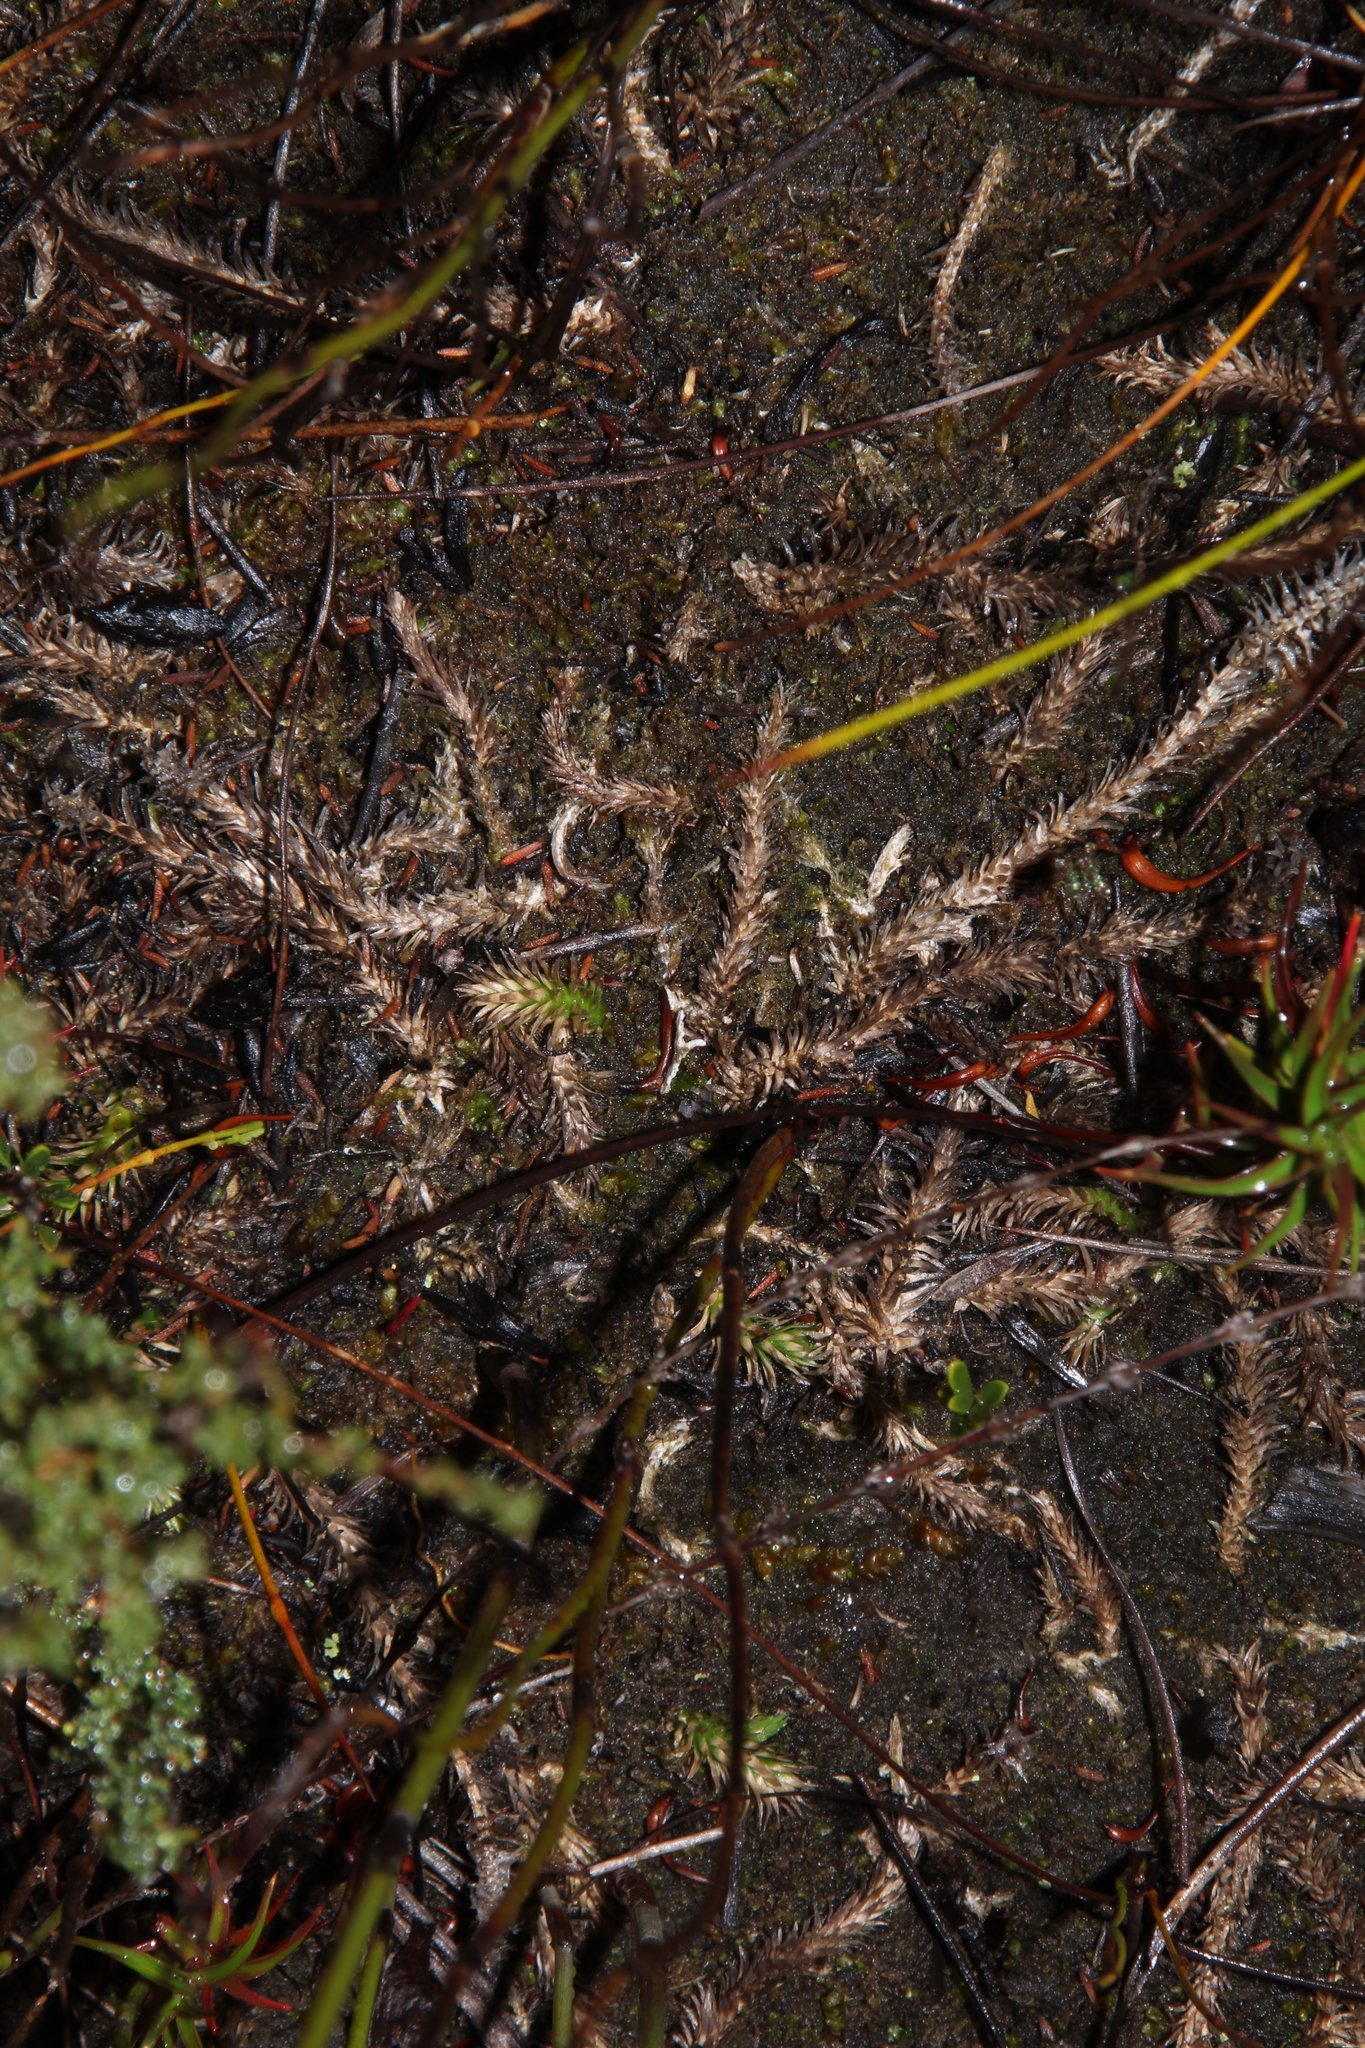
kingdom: Plantae
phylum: Tracheophyta
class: Lycopodiopsida
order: Lycopodiales
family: Lycopodiaceae
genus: Brownseya
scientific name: Brownseya serpentina
